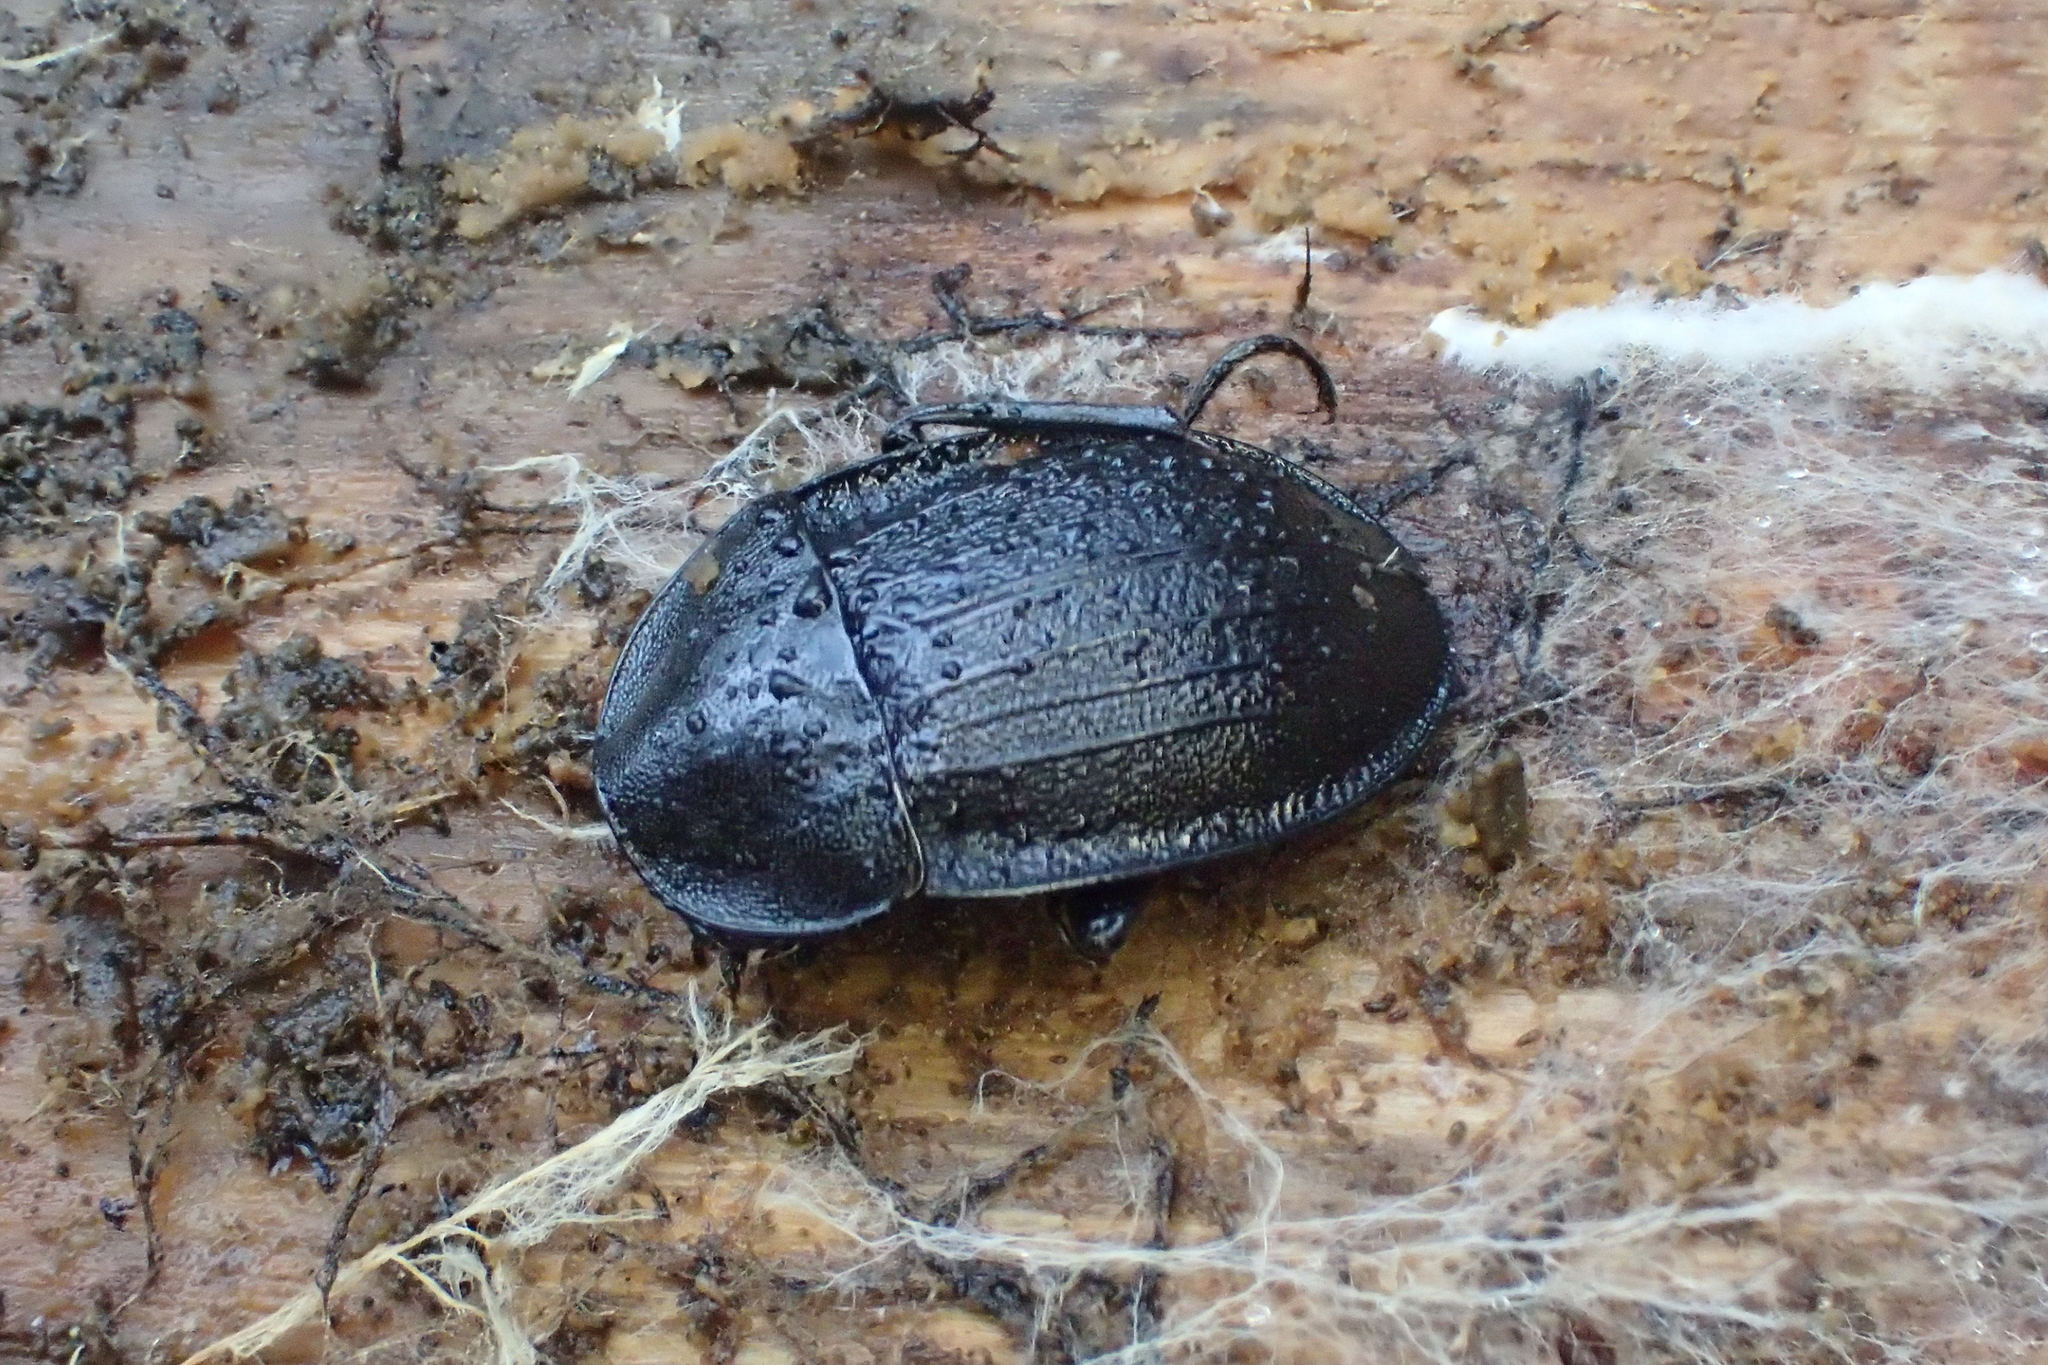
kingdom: Animalia
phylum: Arthropoda
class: Insecta
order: Coleoptera
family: Staphylinidae
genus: Silpha
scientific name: Silpha atrata
